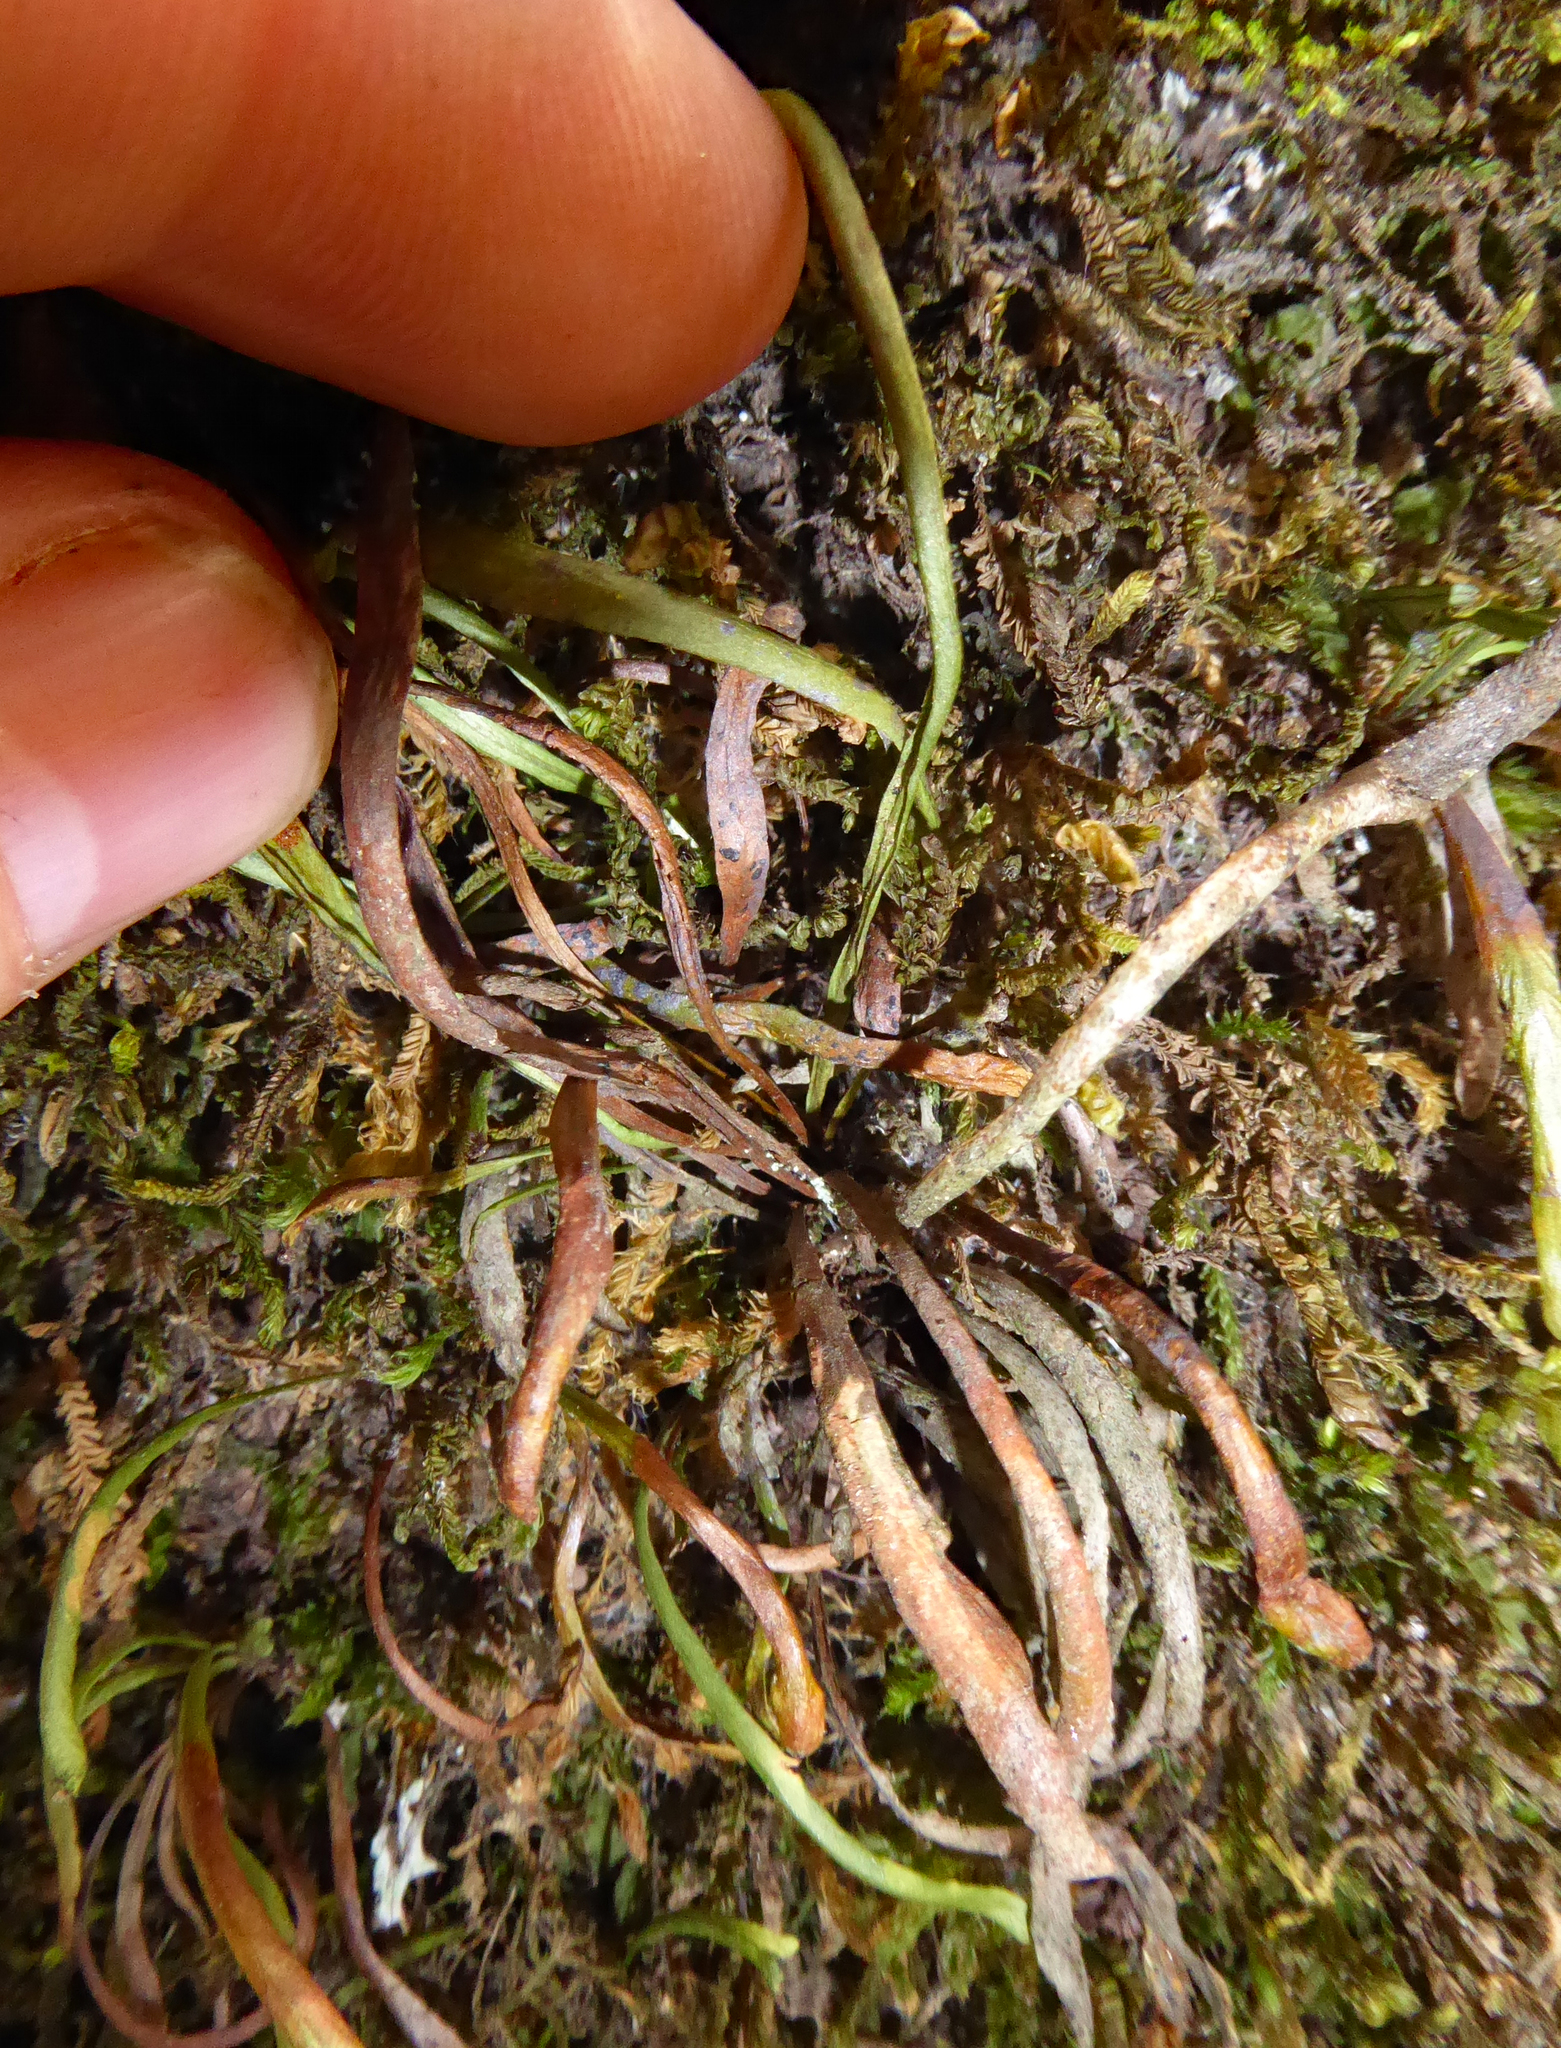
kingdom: Plantae
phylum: Tracheophyta
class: Polypodiopsida
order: Polypodiales
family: Polypodiaceae
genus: Notogrammitis
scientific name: Notogrammitis angustifolia
